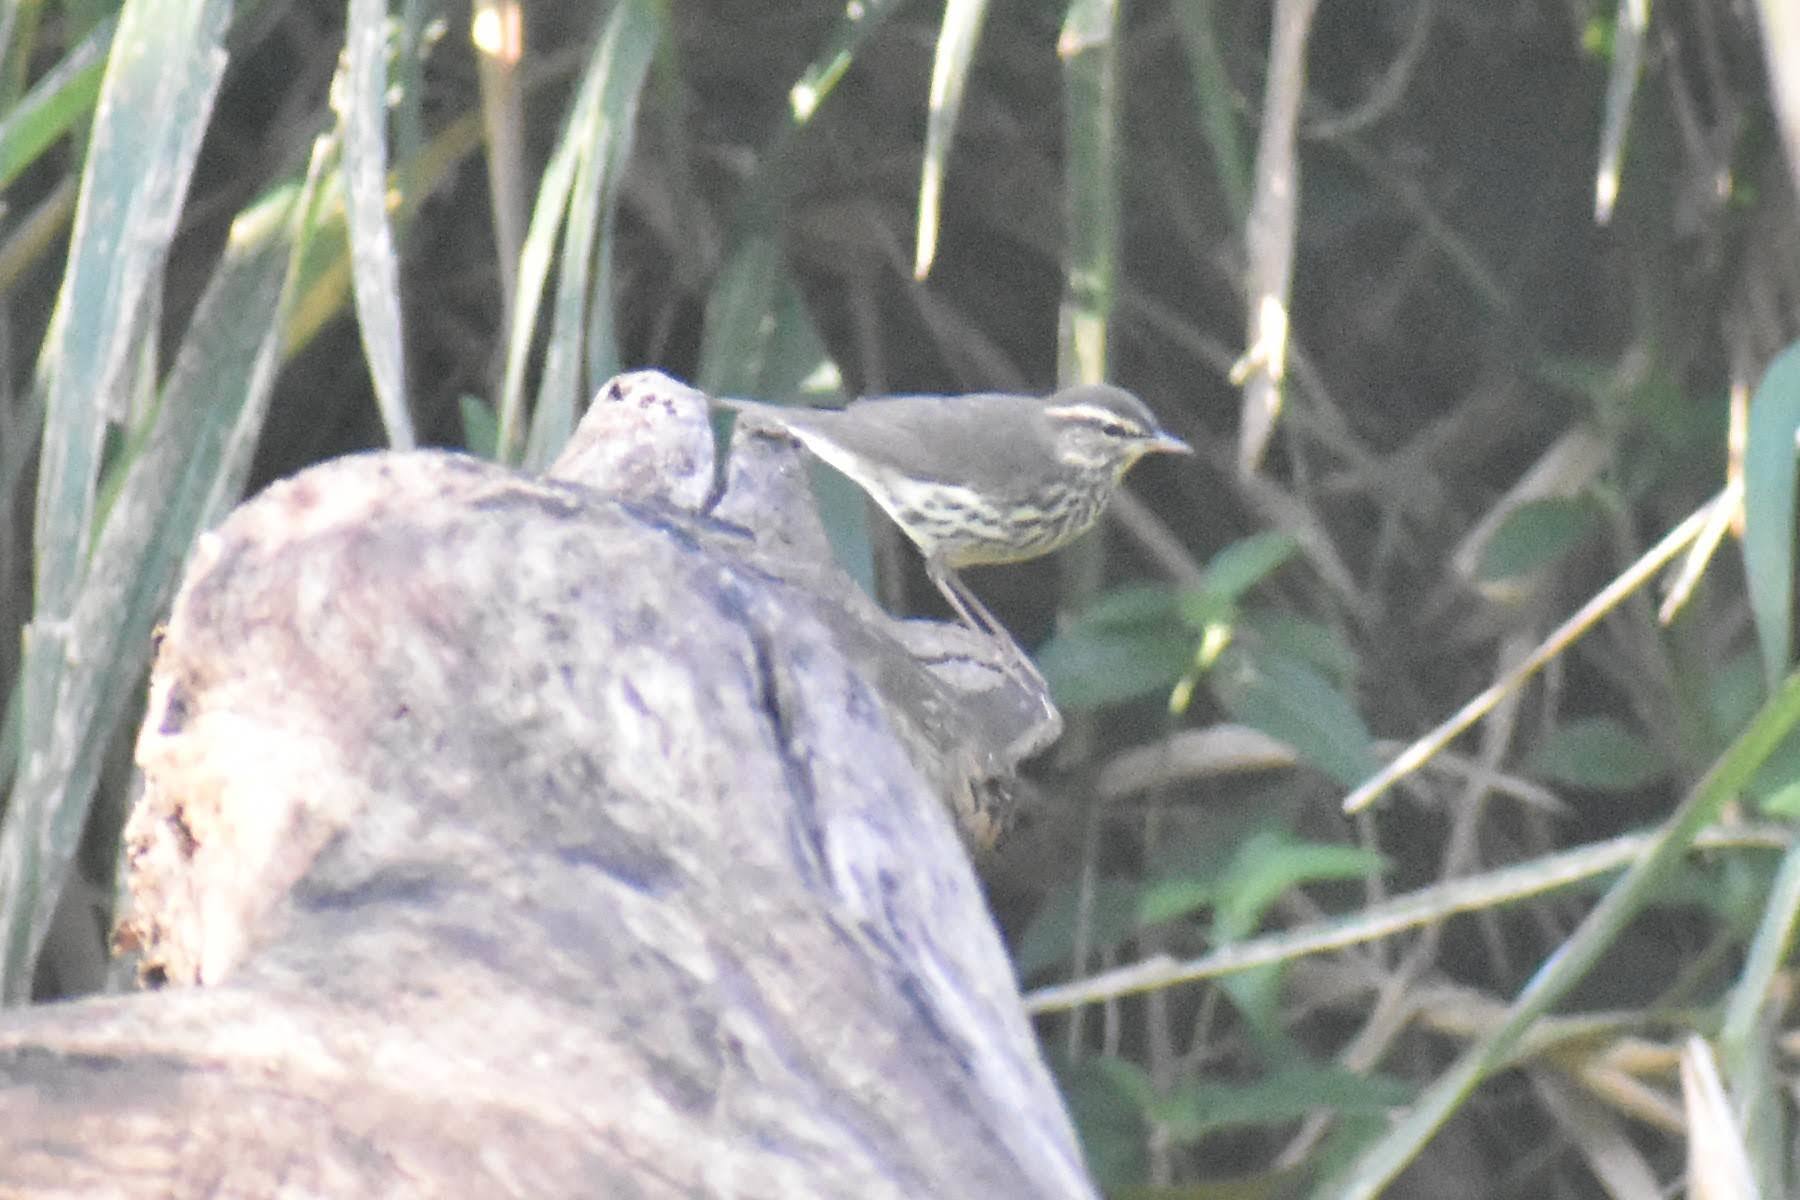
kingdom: Animalia
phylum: Chordata
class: Aves
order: Passeriformes
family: Parulidae
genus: Parkesia
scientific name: Parkesia noveboracensis
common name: Northern waterthrush
